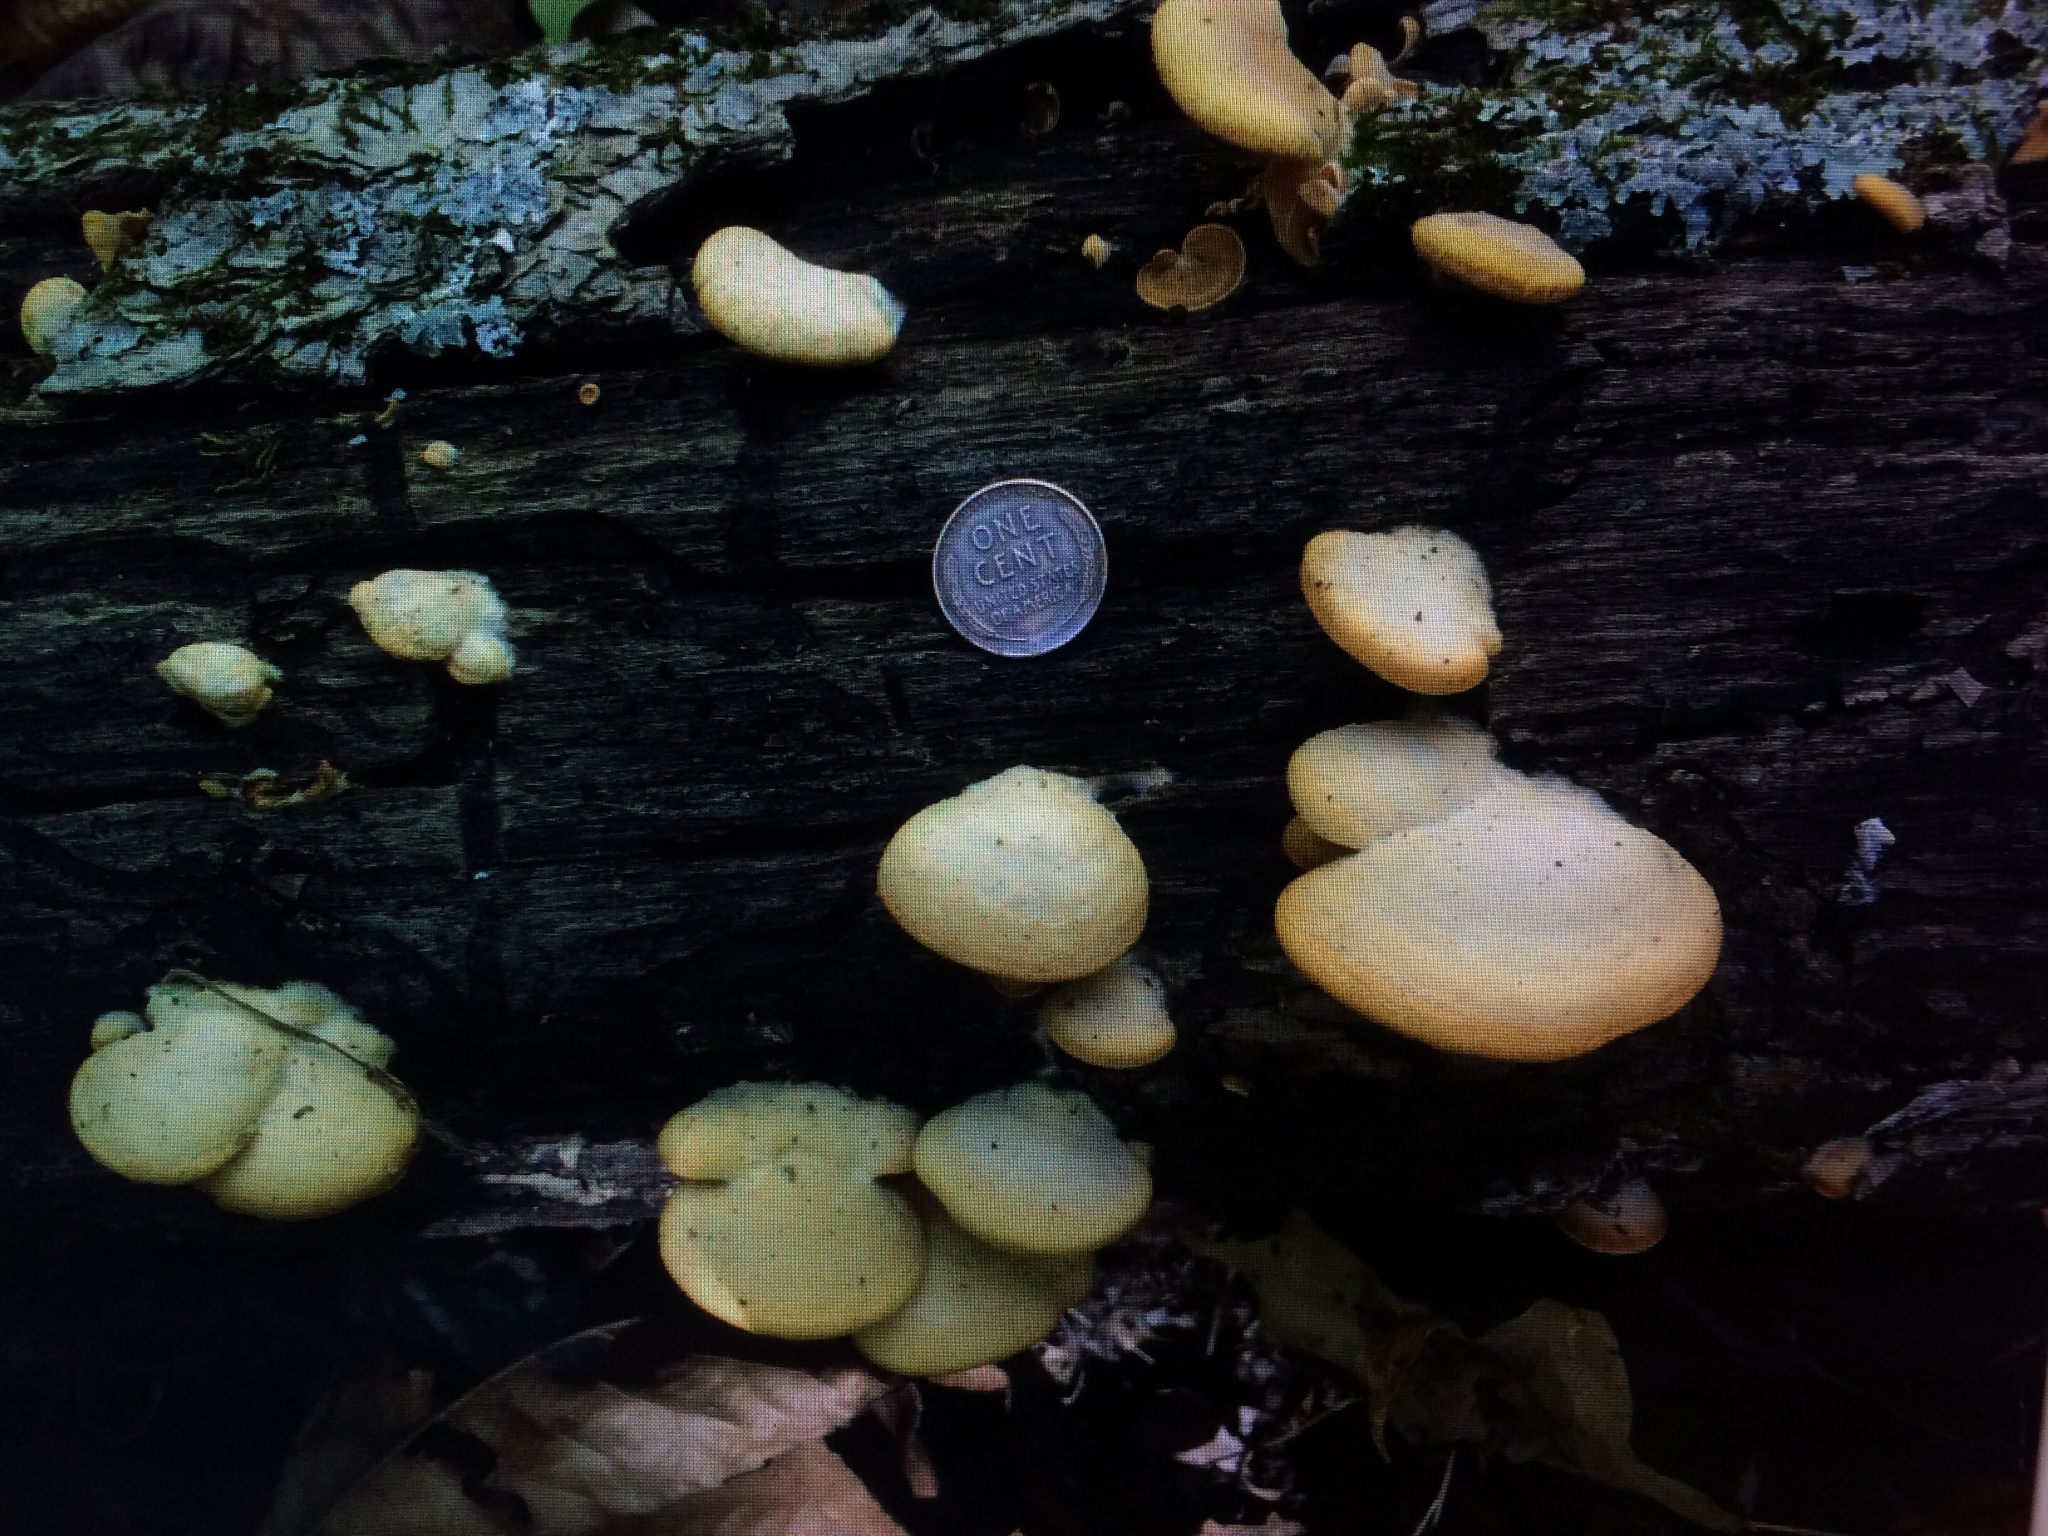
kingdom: Fungi
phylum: Basidiomycota
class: Agaricomycetes
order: Agaricales
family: Phyllotopsidaceae
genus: Phyllotopsis
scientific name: Phyllotopsis nidulans
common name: Orange mock oyster
